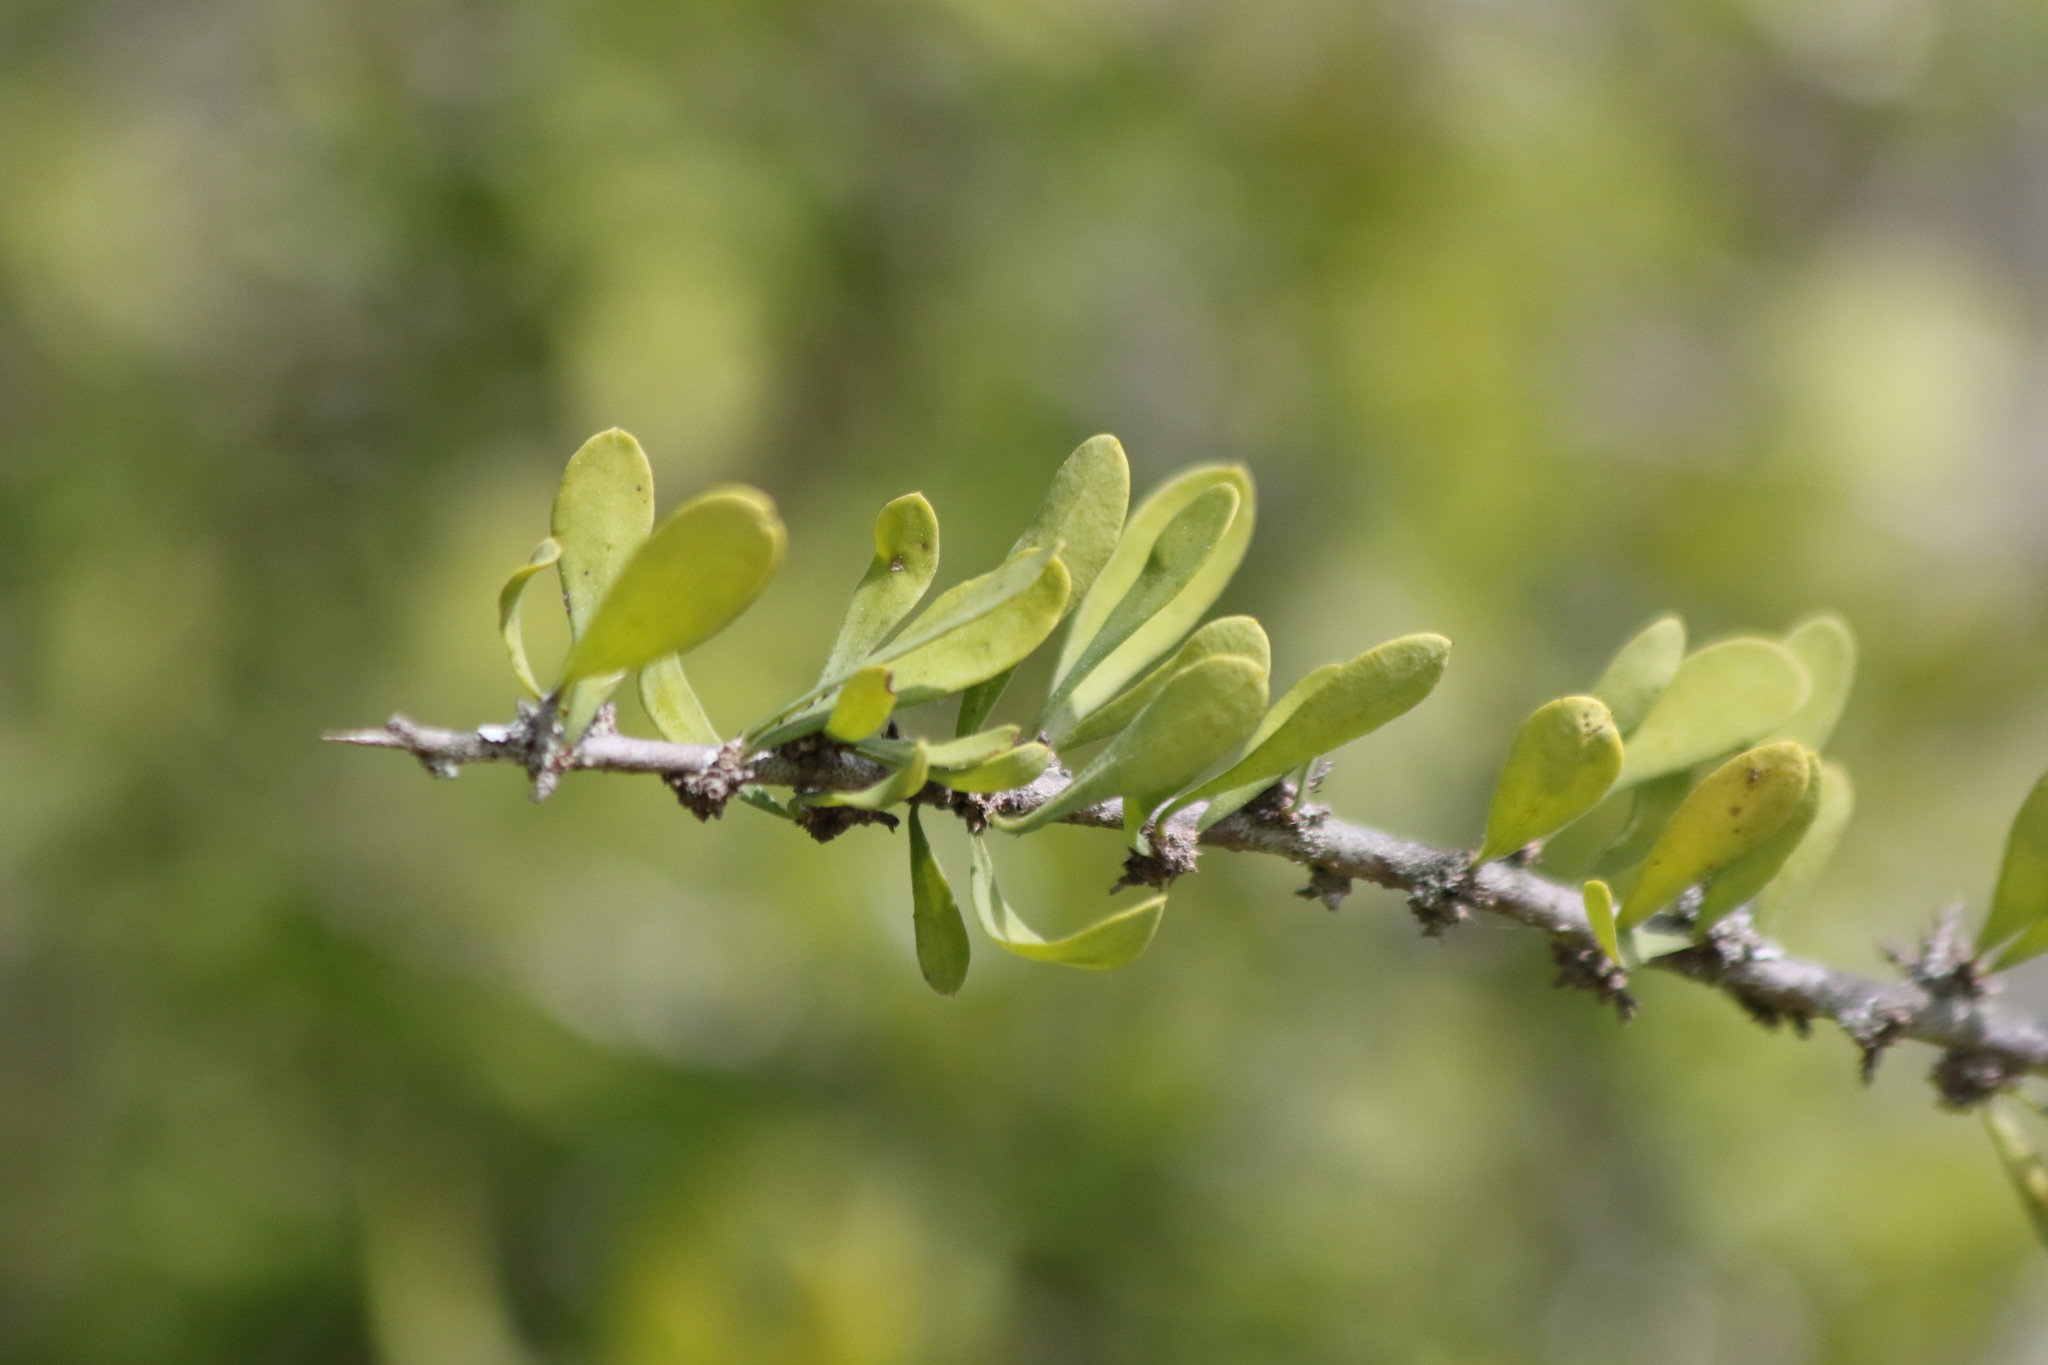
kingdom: Plantae
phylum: Tracheophyta
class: Magnoliopsida
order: Caryophyllales
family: Achatocarpaceae
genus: Phaulothamnus
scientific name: Phaulothamnus spinescens
